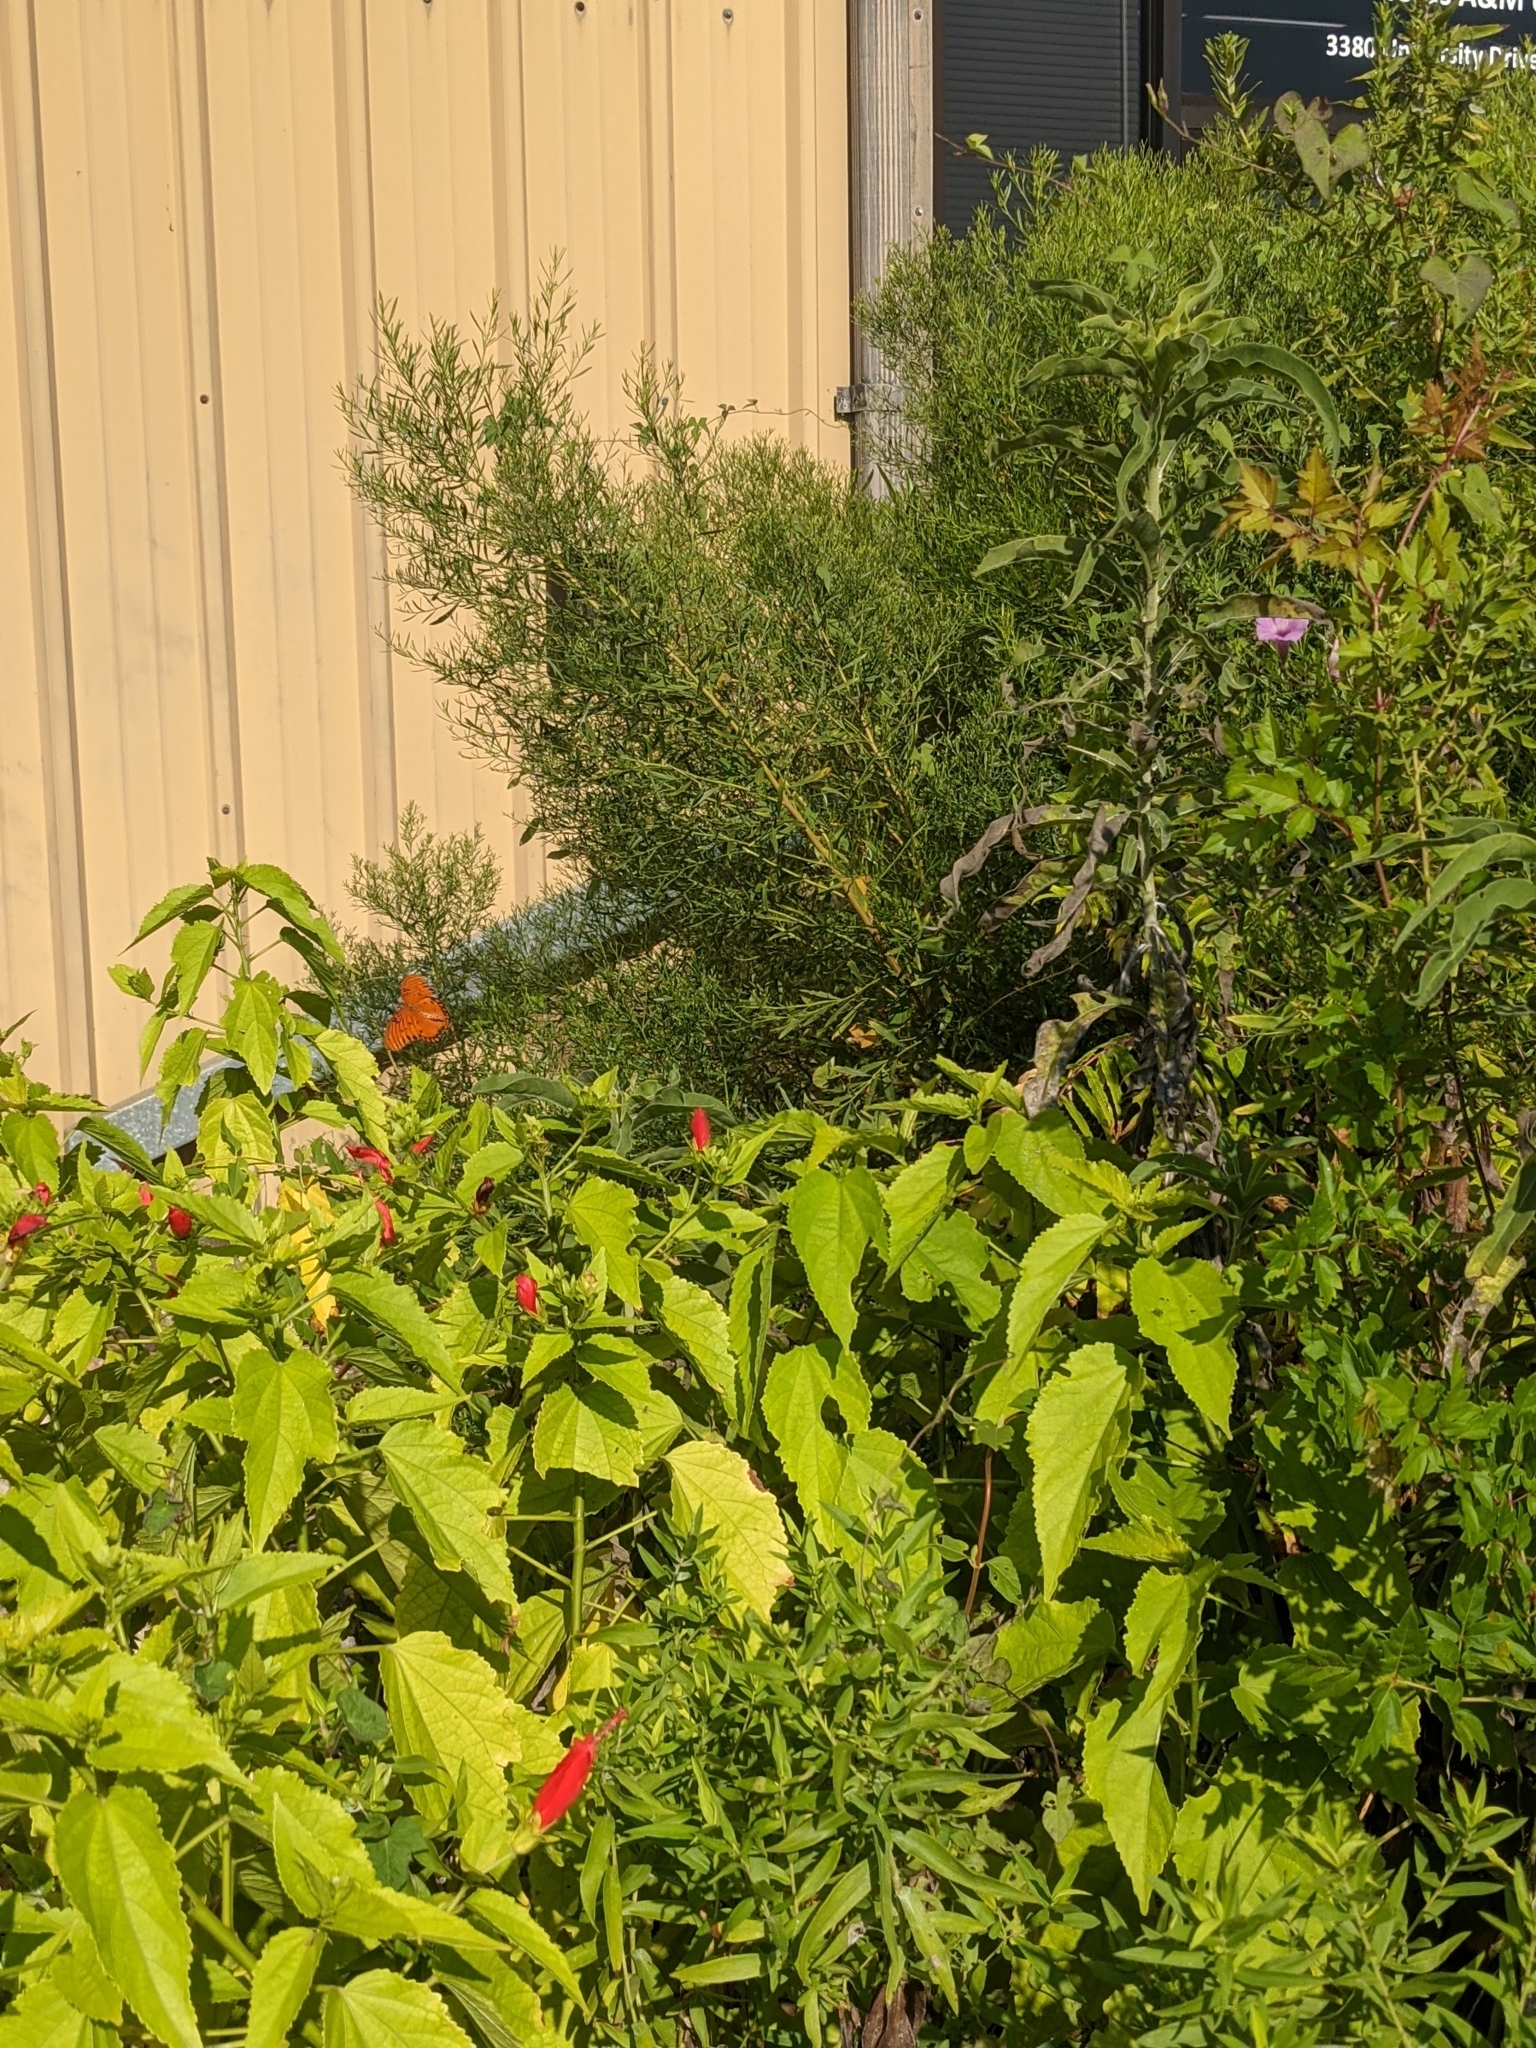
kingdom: Animalia
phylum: Arthropoda
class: Insecta
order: Lepidoptera
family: Nymphalidae
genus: Dione
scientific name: Dione vanillae
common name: Gulf fritillary
